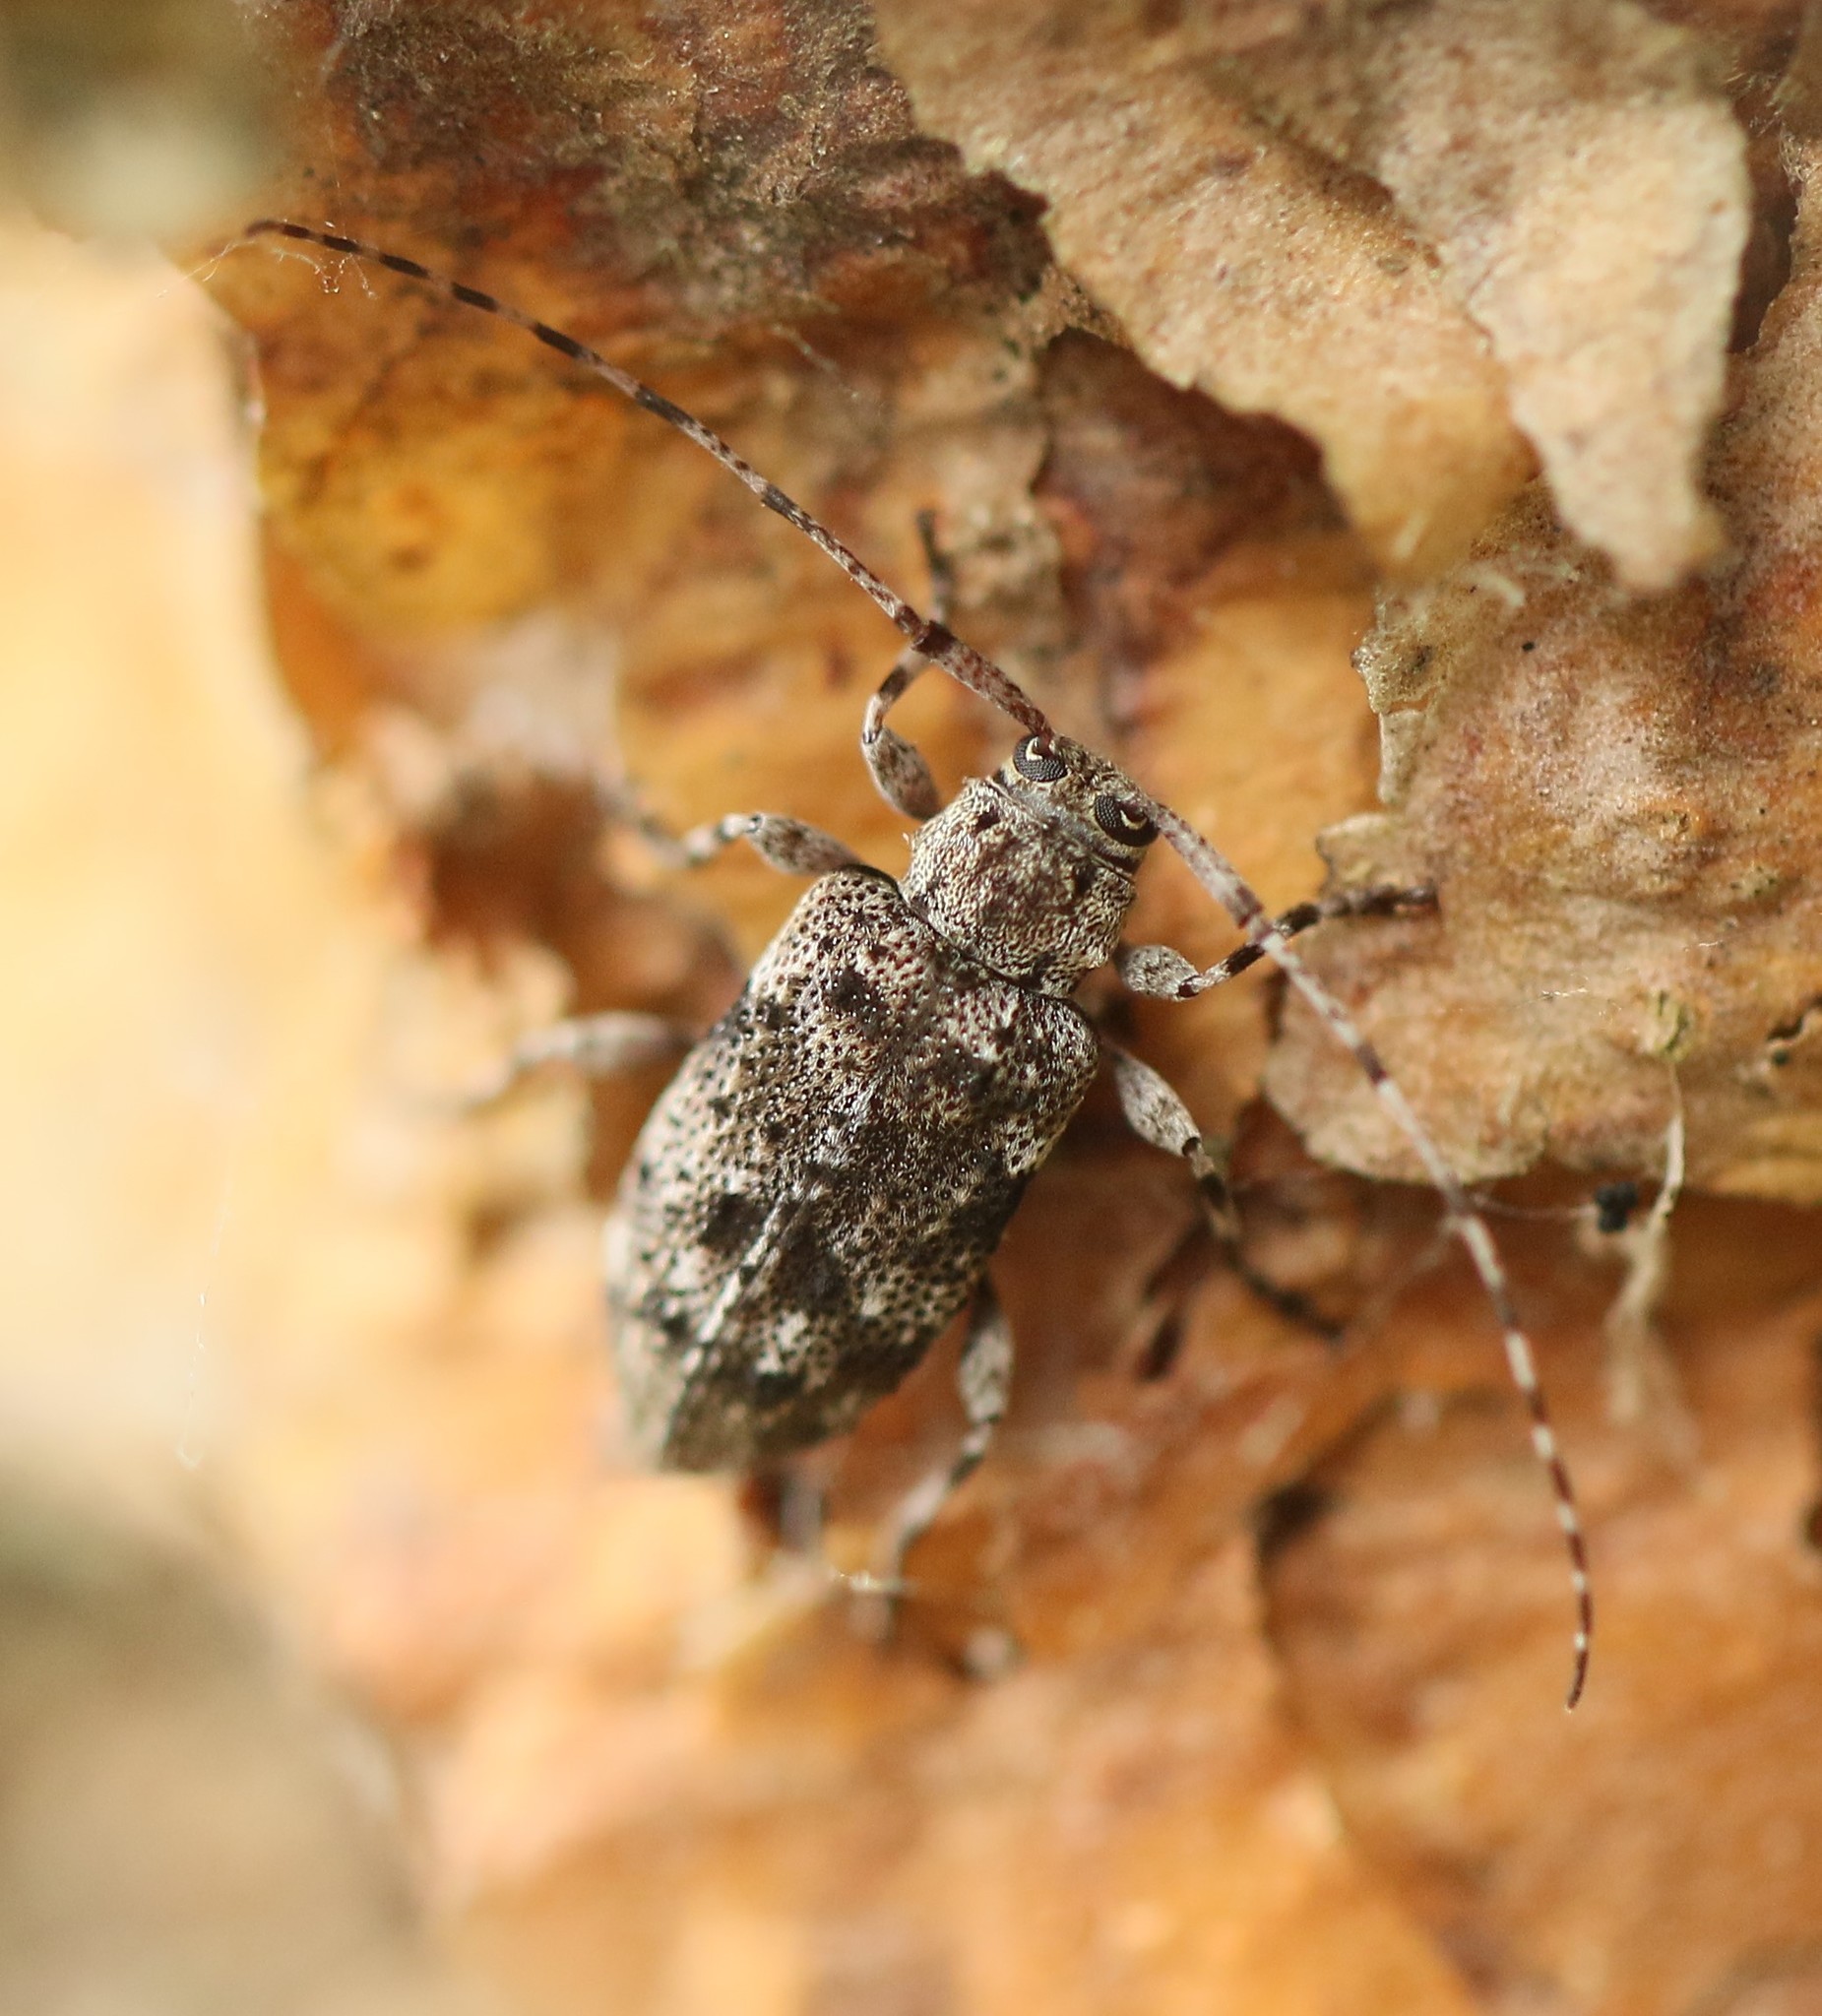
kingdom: Animalia
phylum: Arthropoda
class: Insecta
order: Coleoptera
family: Cerambycidae
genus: Astylopsis
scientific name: Astylopsis sexguttata
